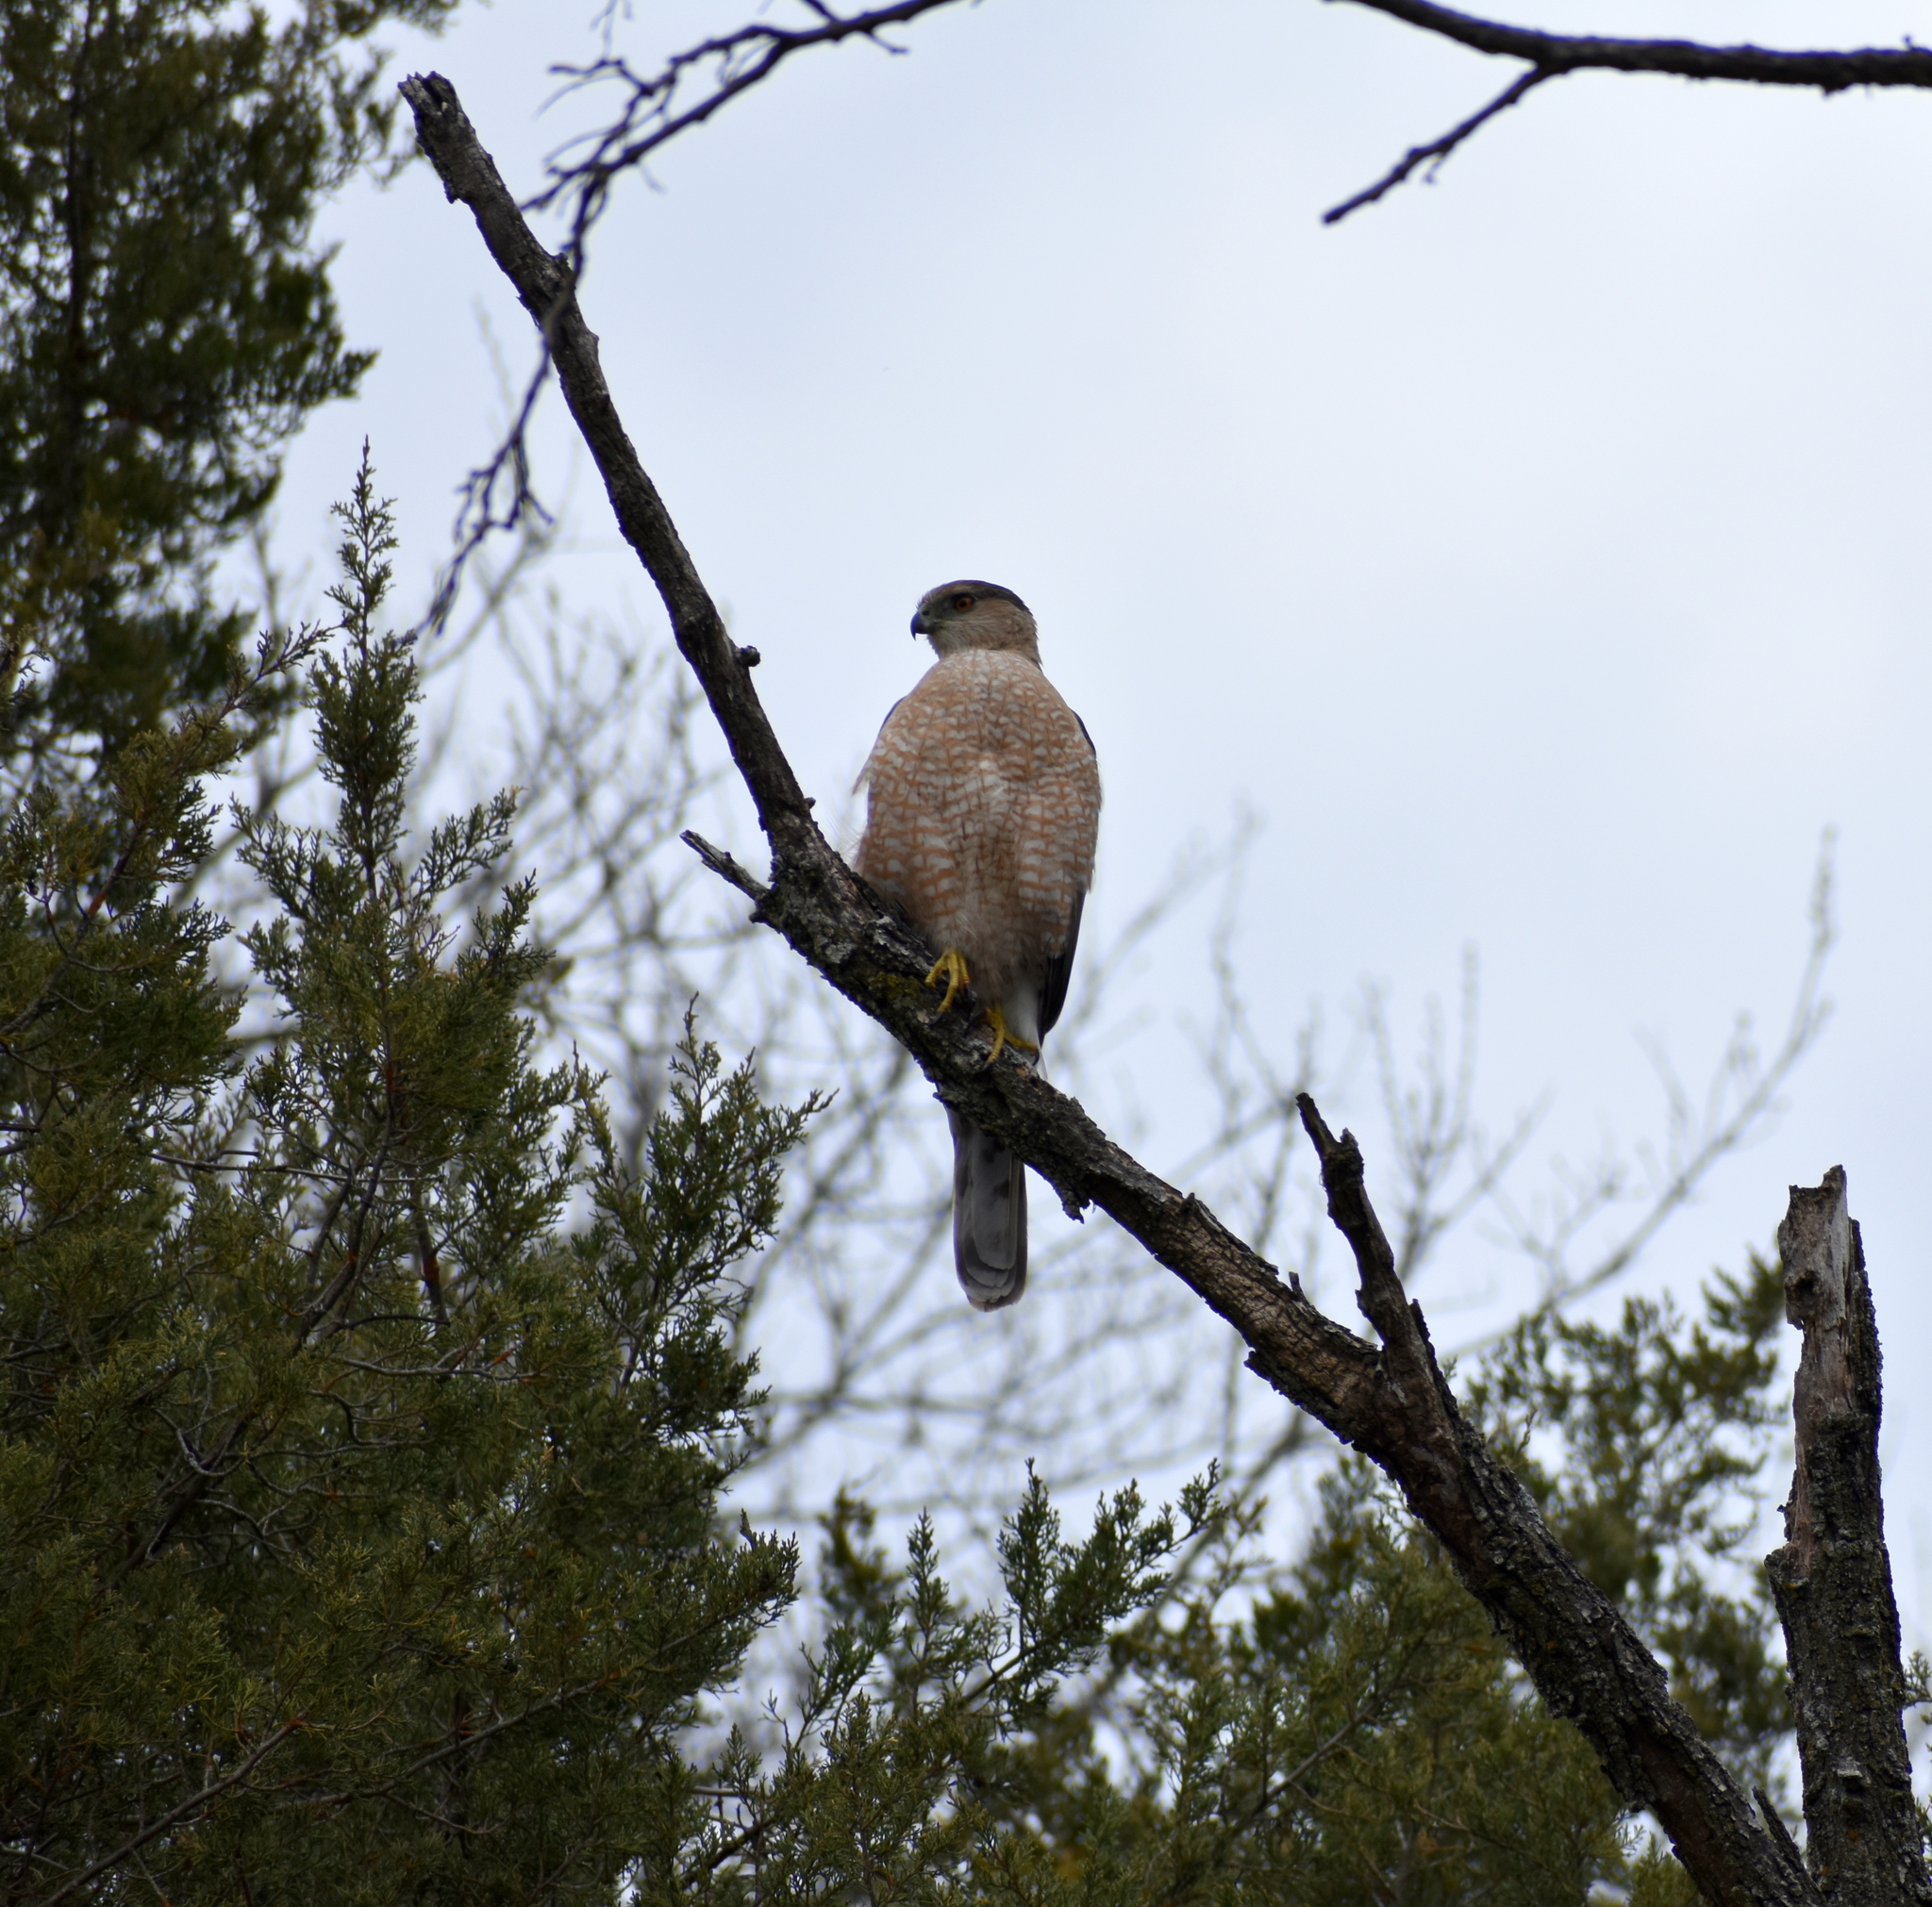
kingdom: Animalia
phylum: Chordata
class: Aves
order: Accipitriformes
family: Accipitridae
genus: Accipiter
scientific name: Accipiter cooperii
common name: Cooper's hawk
